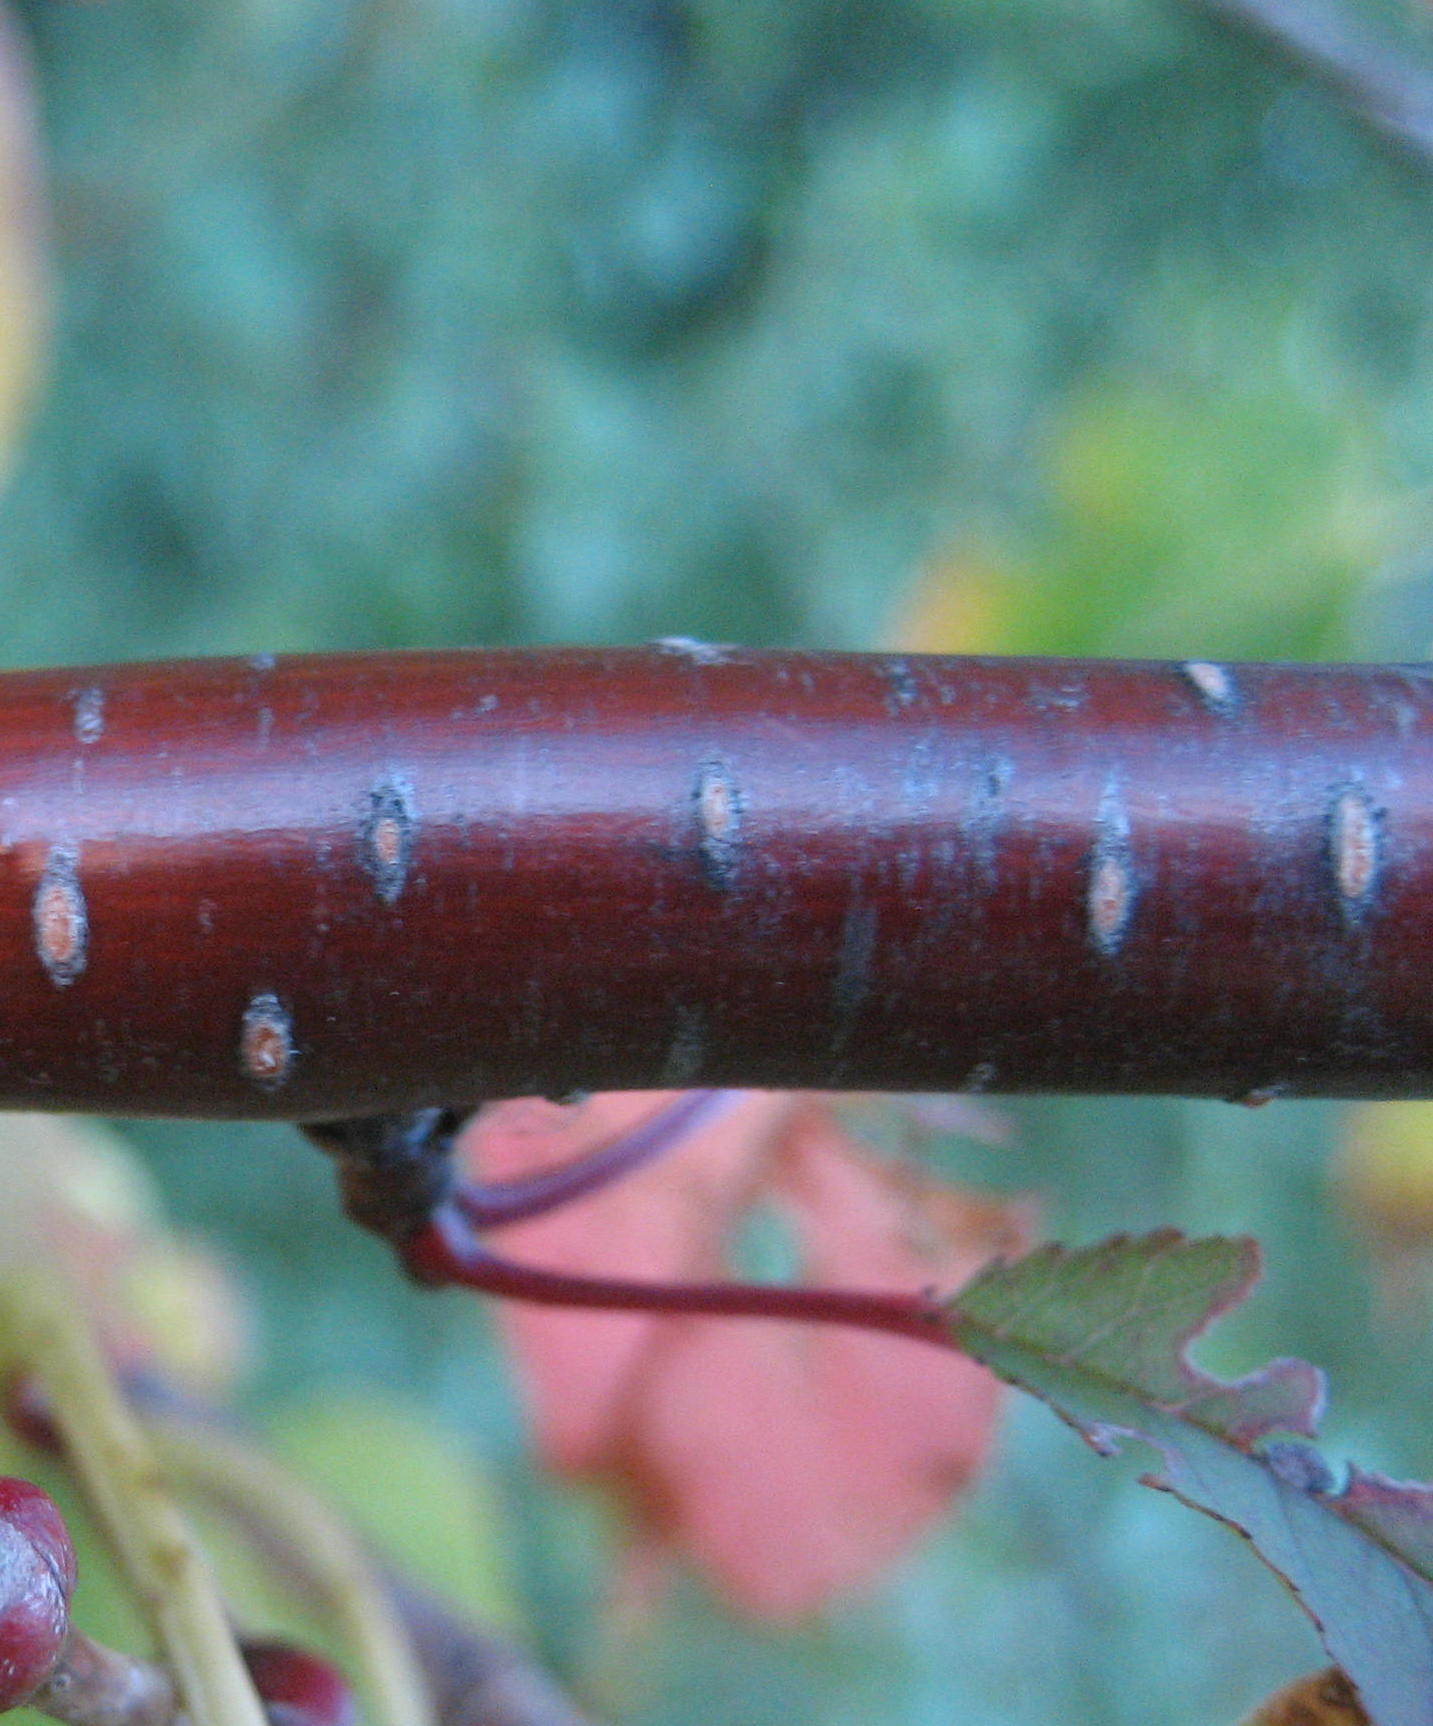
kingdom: Plantae
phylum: Tracheophyta
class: Magnoliopsida
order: Rosales
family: Rosaceae
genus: Prunus
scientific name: Prunus pensylvanica
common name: Pin cherry
